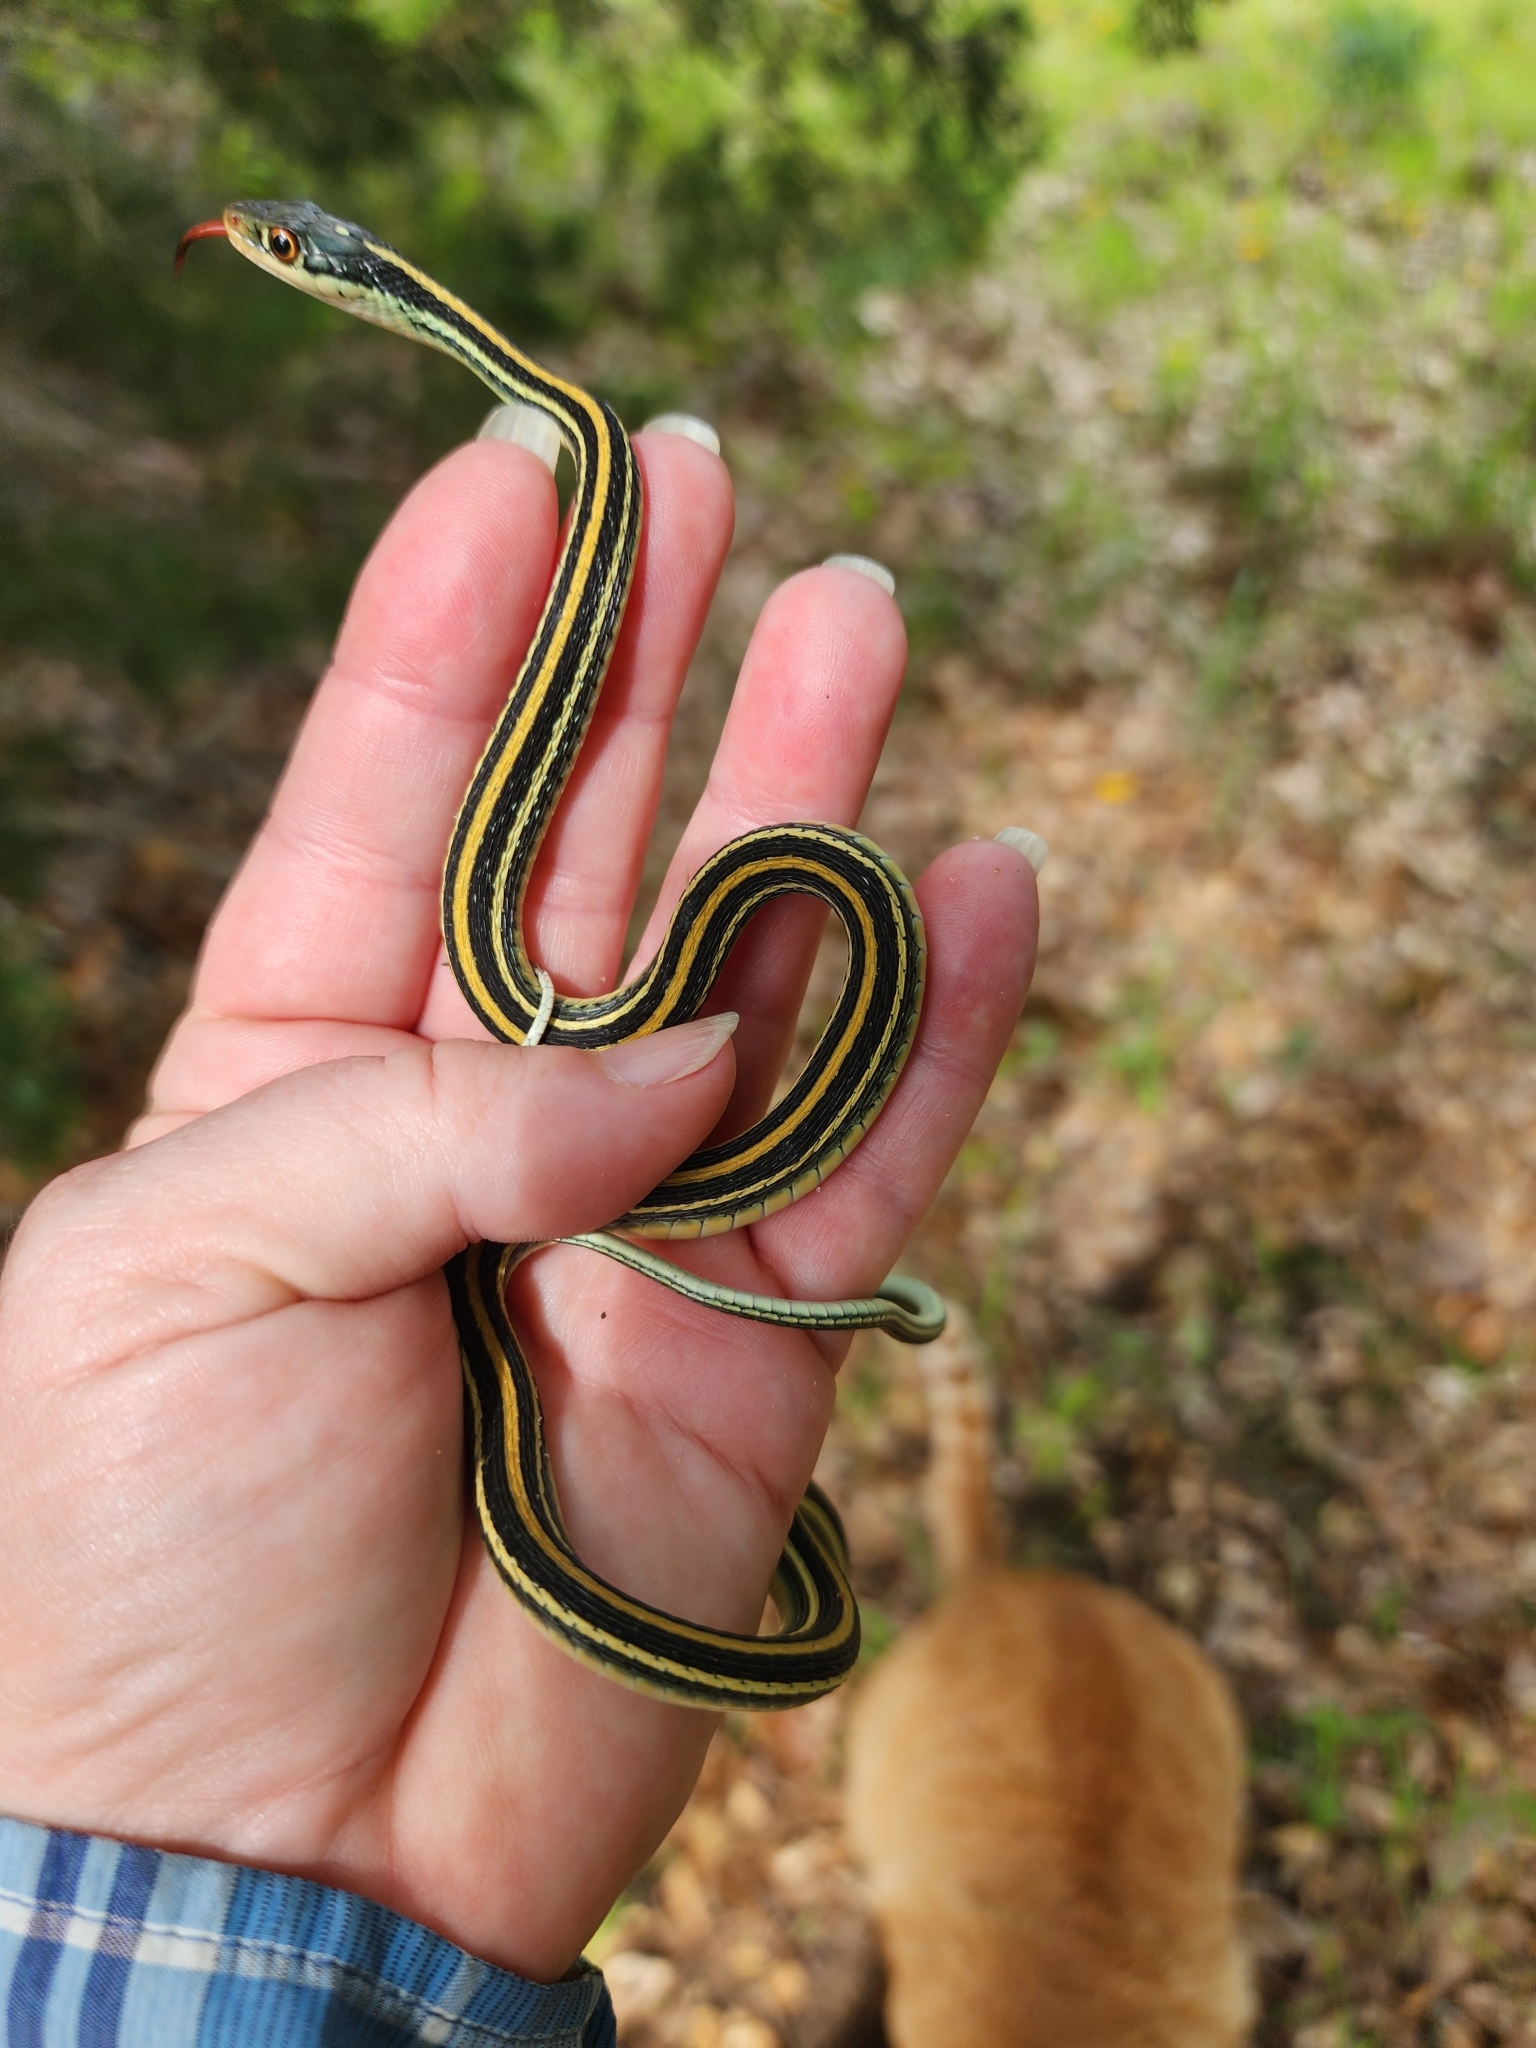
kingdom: Animalia
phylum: Chordata
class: Squamata
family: Colubridae
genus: Thamnophis
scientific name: Thamnophis proximus
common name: Western ribbon snake
